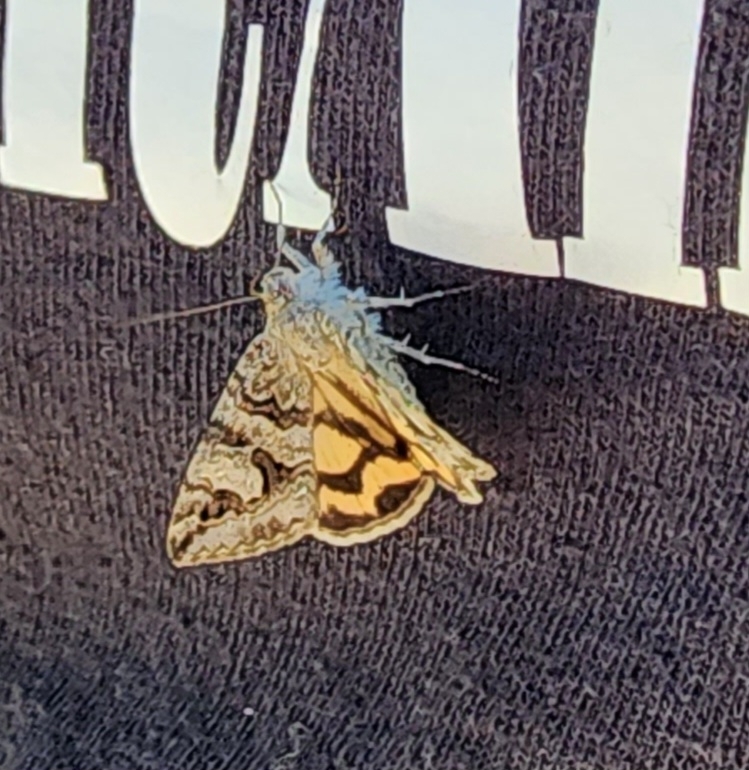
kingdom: Animalia
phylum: Arthropoda
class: Insecta
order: Lepidoptera
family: Erebidae
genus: Drasteria
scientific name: Drasteria adumbrata
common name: Shadowy arches
